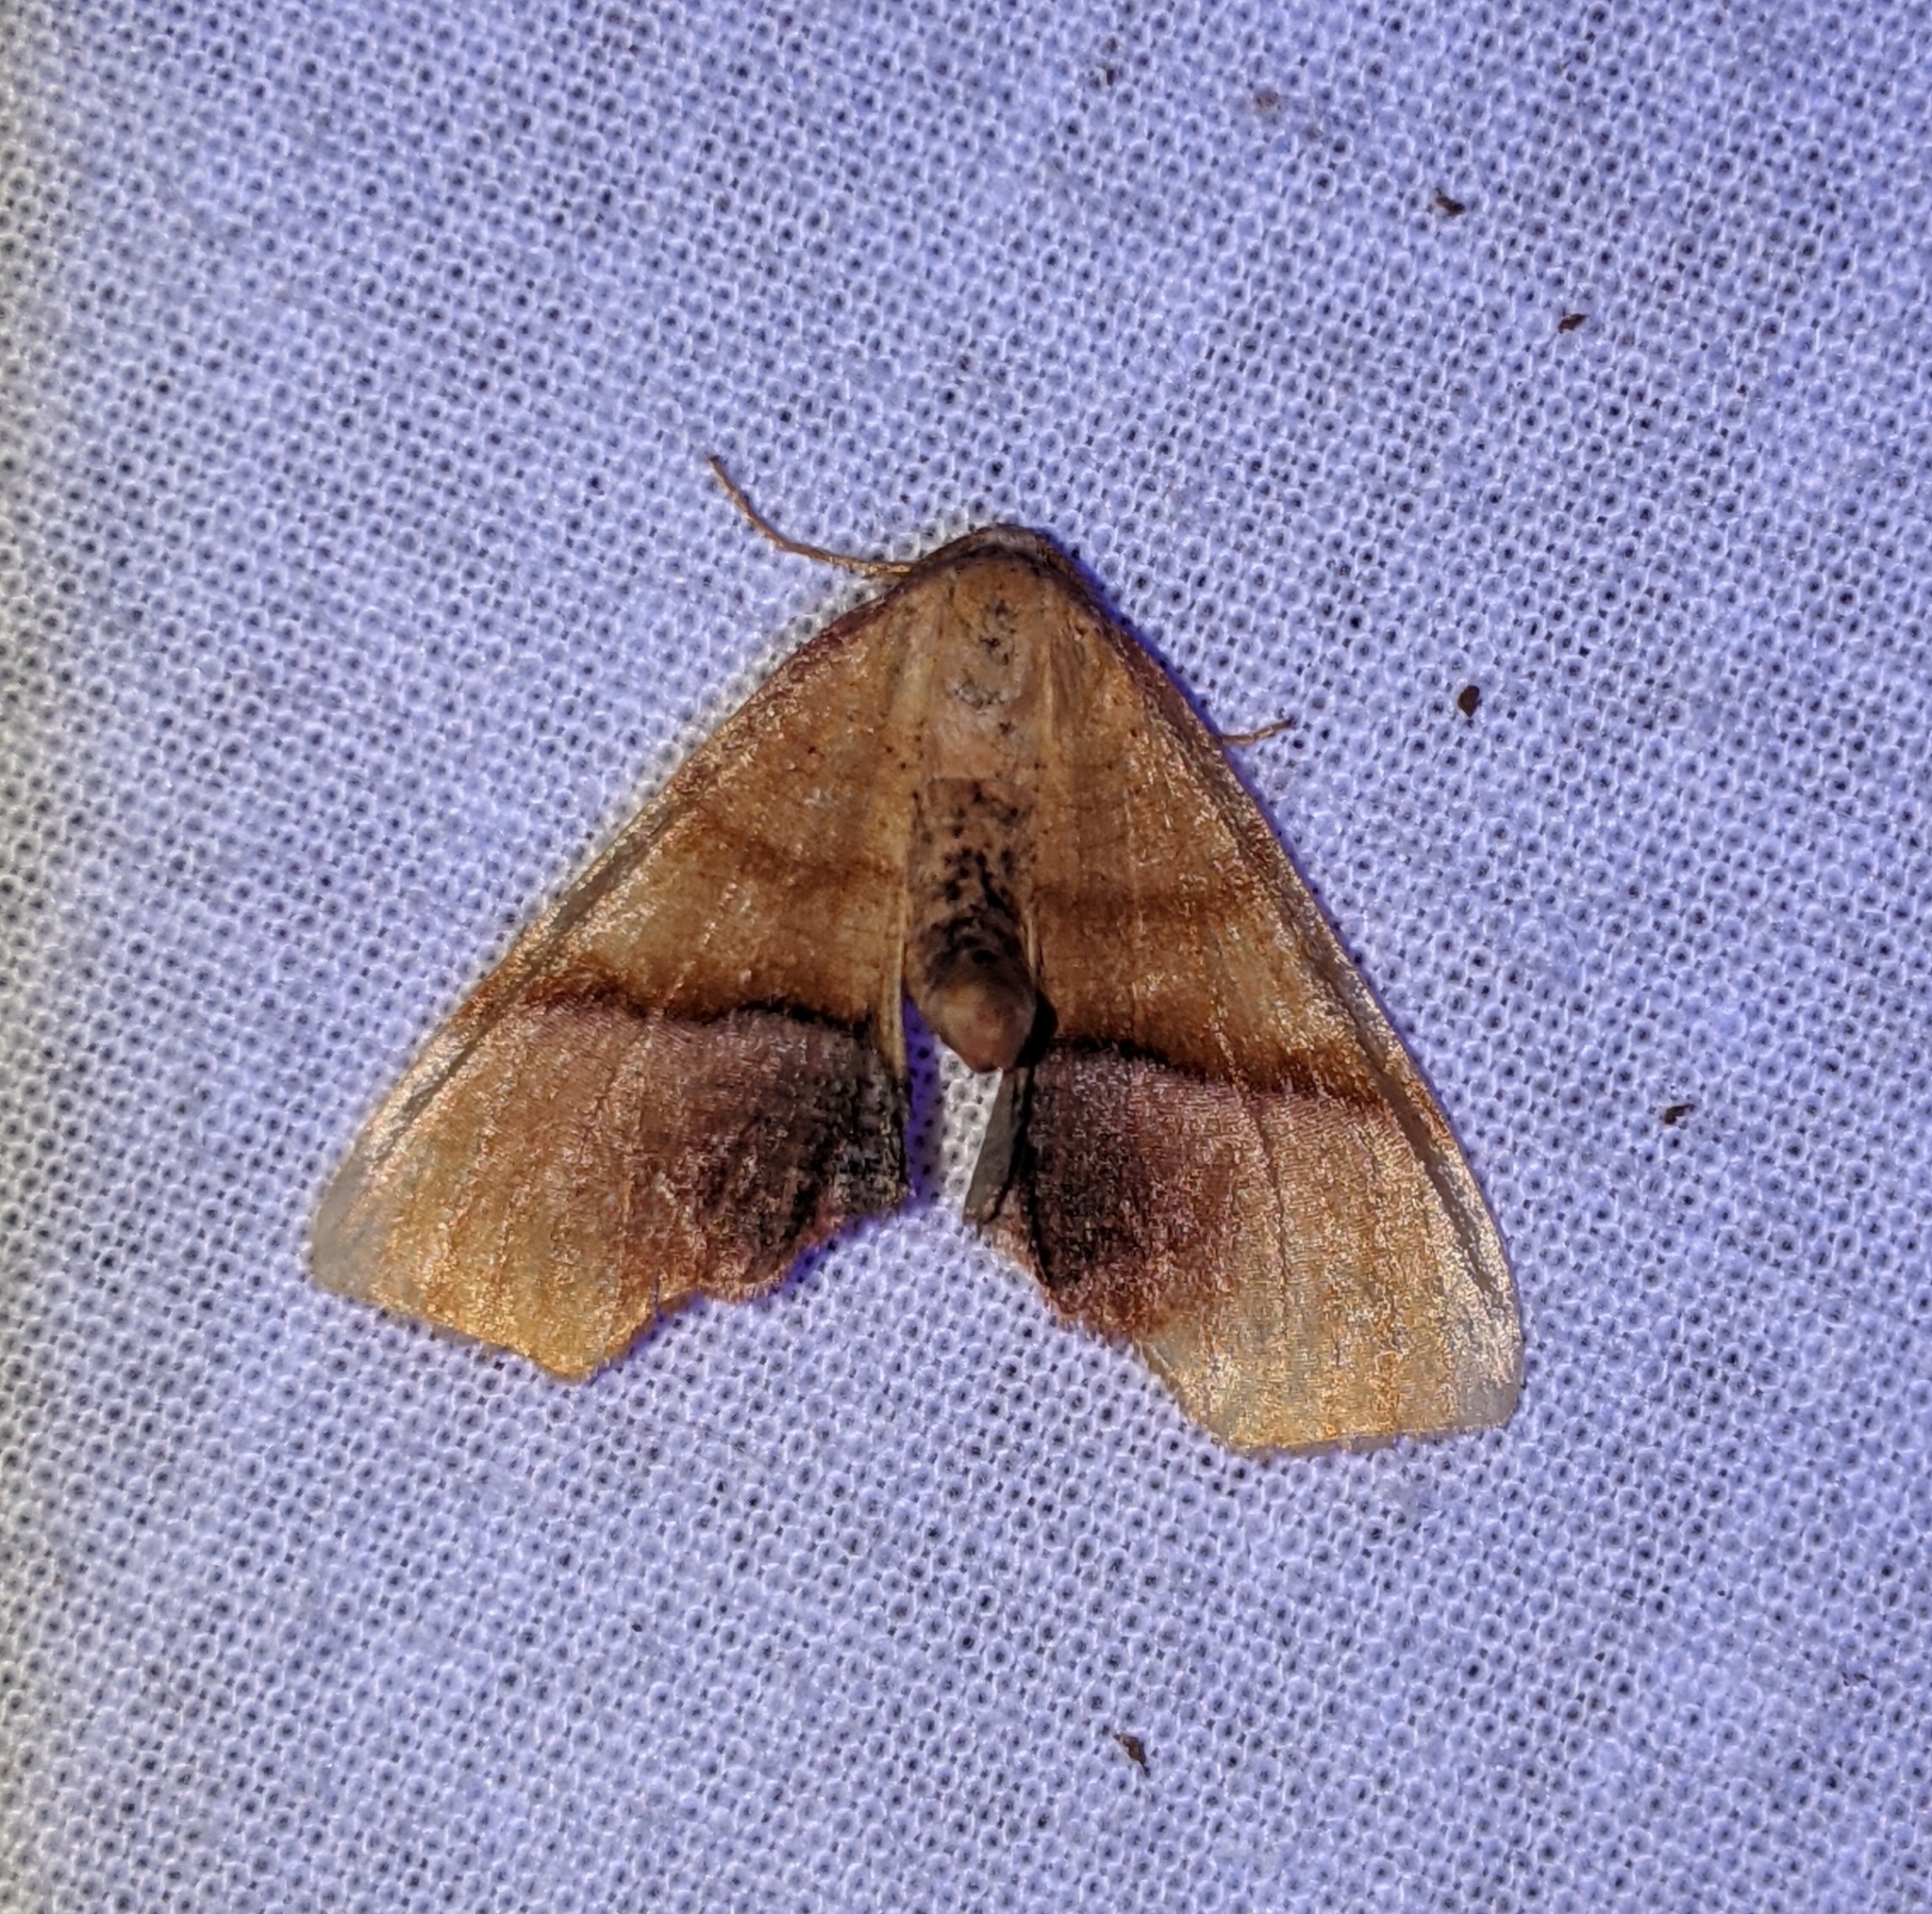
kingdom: Animalia
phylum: Arthropoda
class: Insecta
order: Lepidoptera
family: Geometridae
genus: Plagodis
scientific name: Plagodis phlogosaria
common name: Straight-lined plagodis
